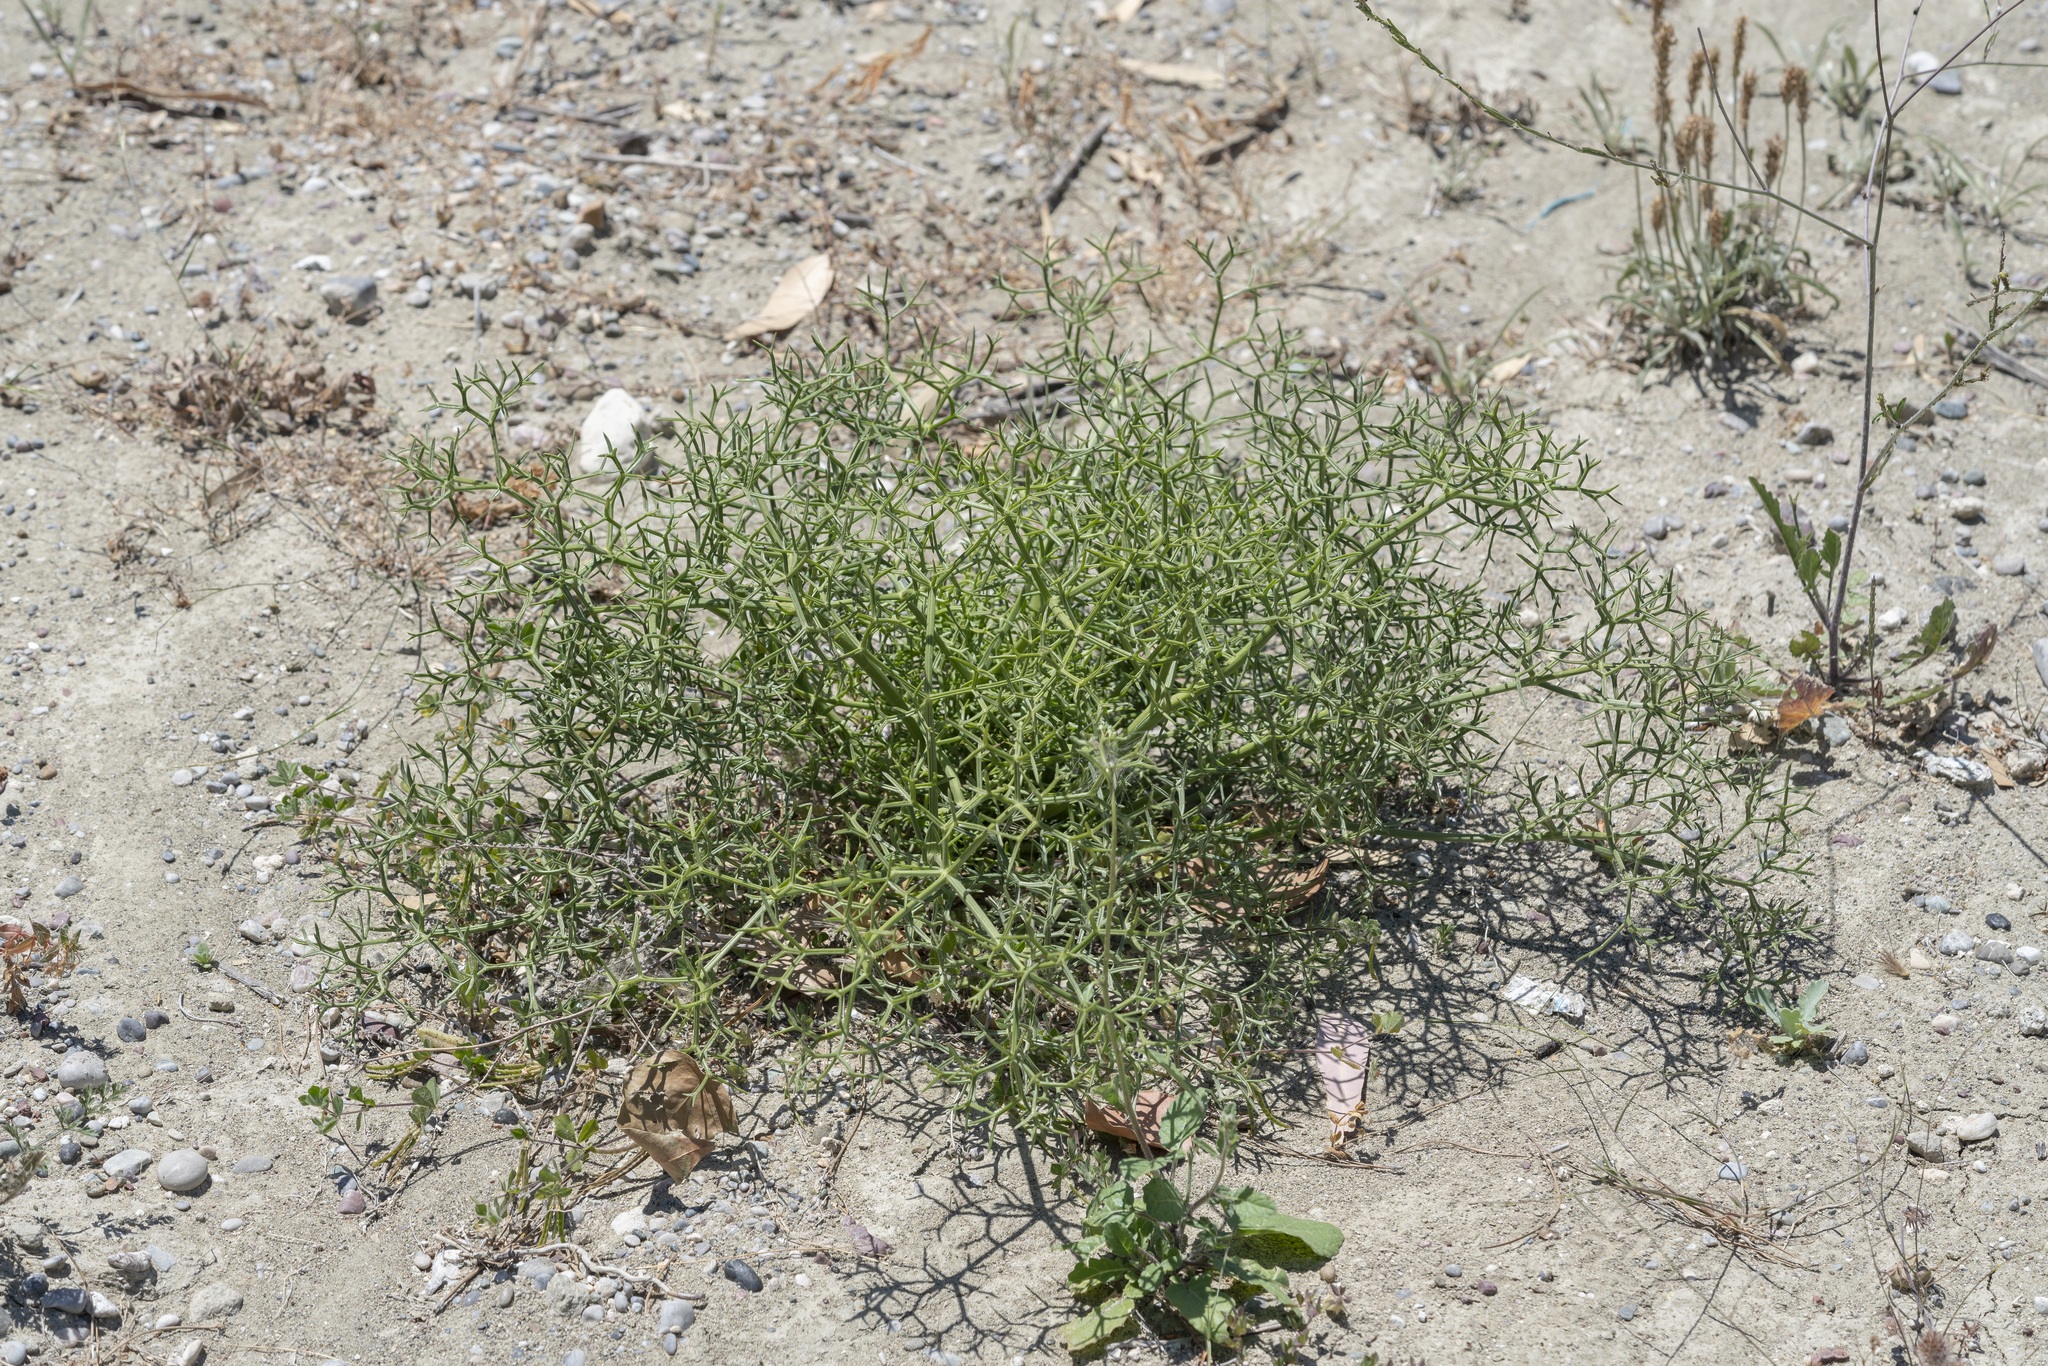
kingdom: Plantae
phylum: Tracheophyta
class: Magnoliopsida
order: Apiales
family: Apiaceae
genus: Cachrys
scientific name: Cachrys cristata
